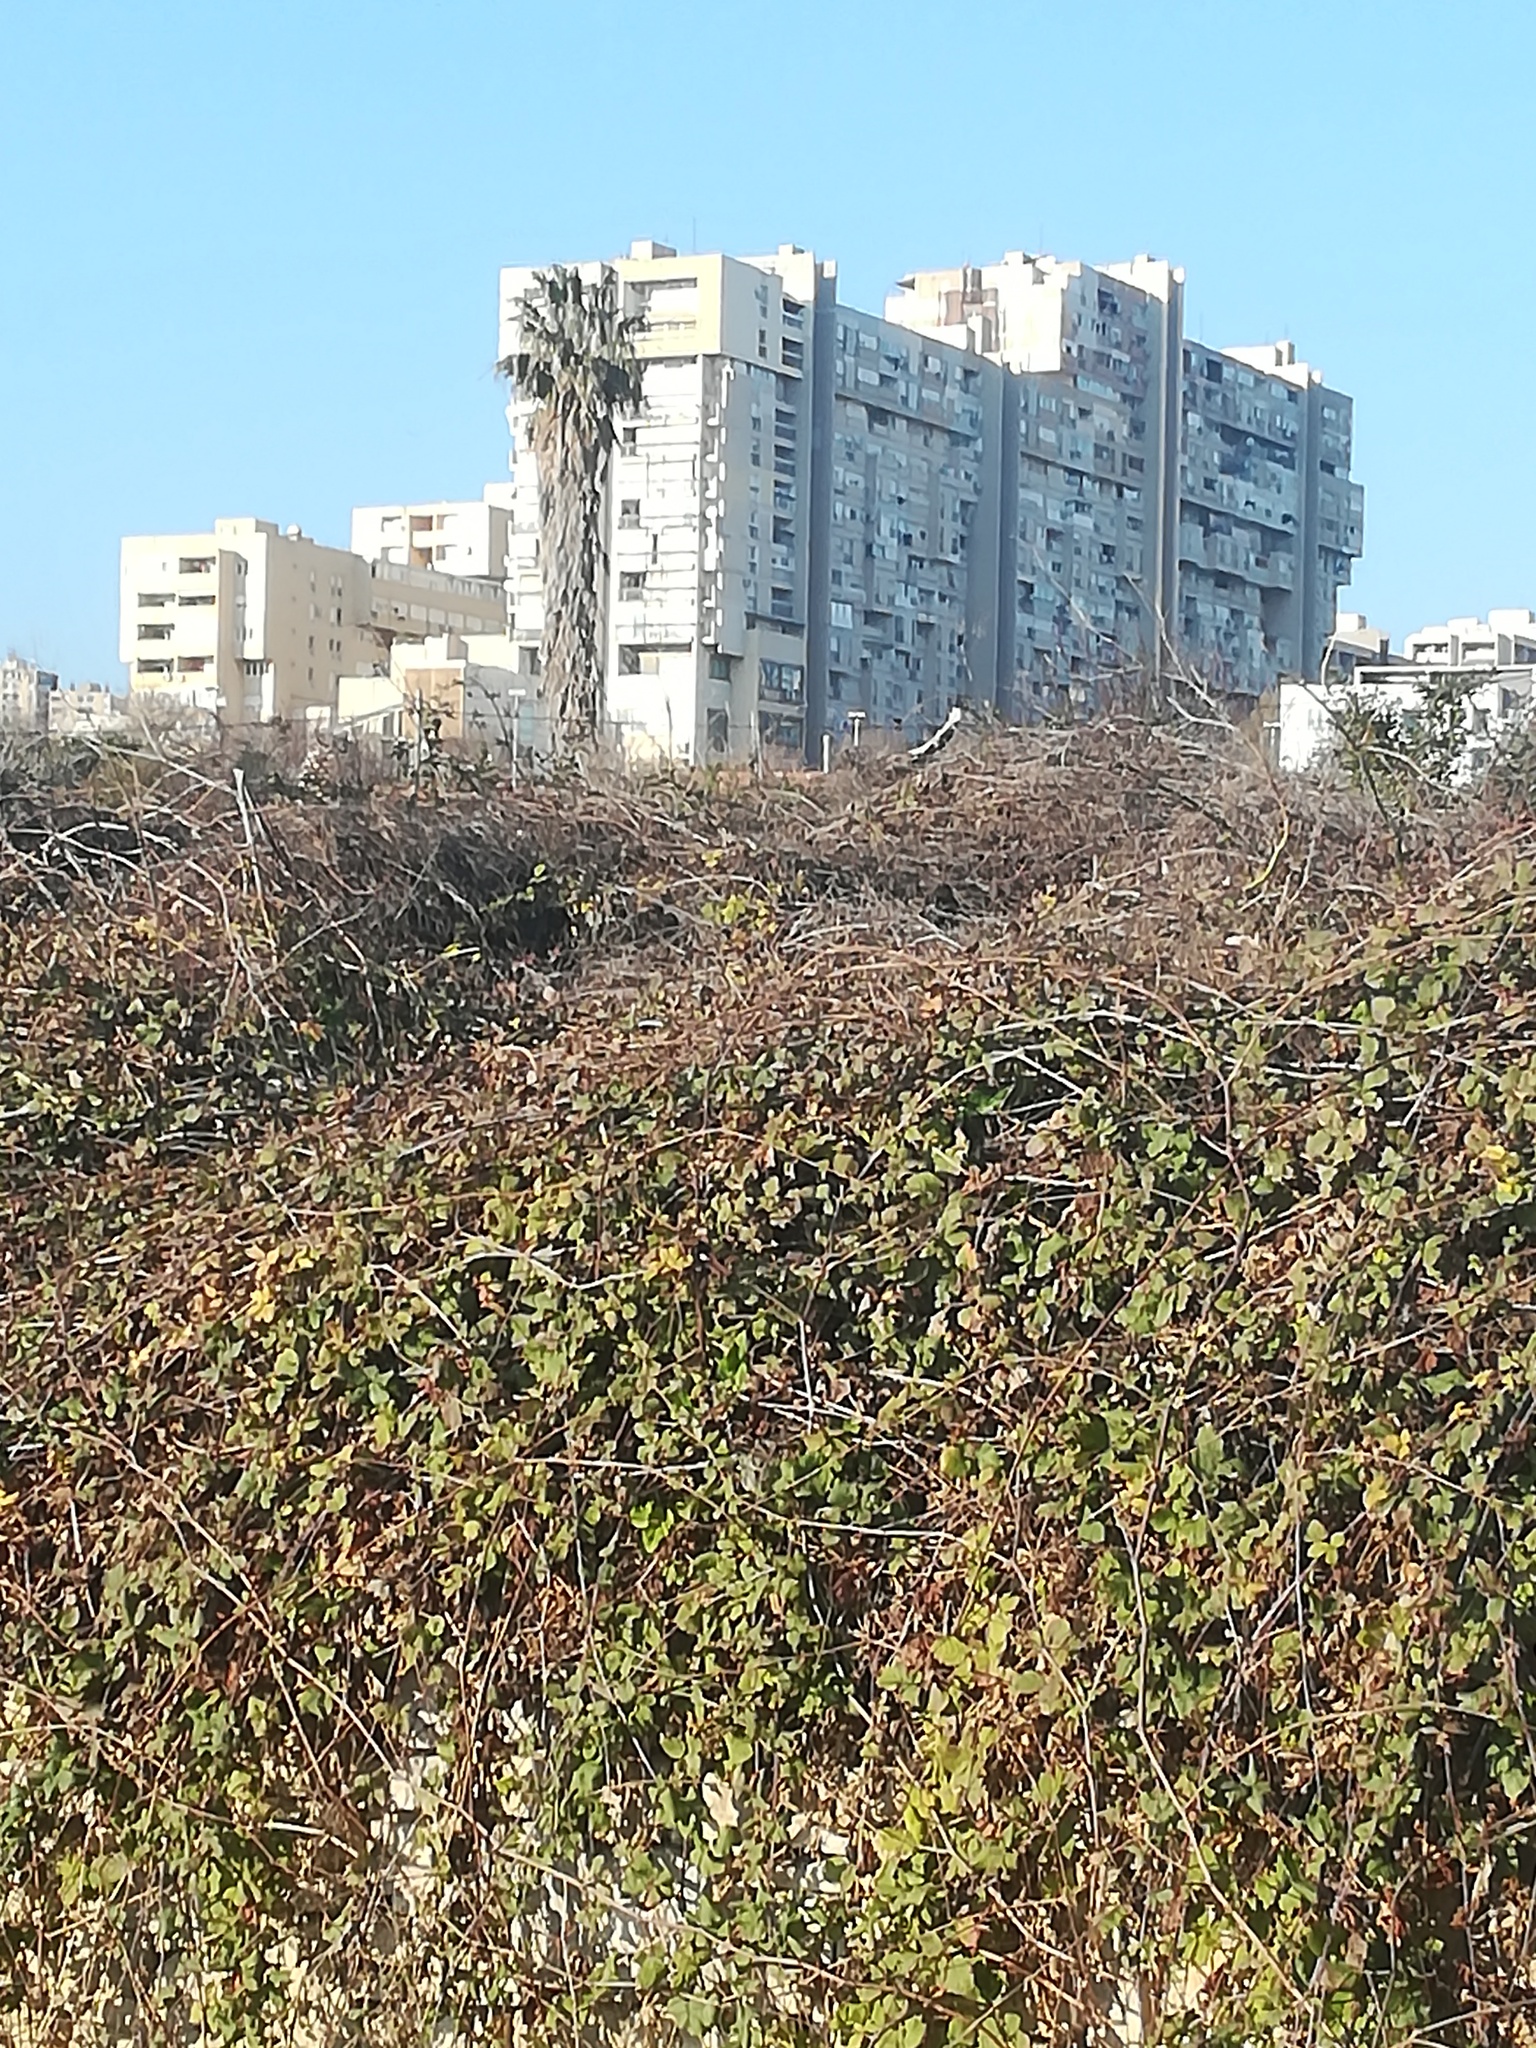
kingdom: Plantae
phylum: Tracheophyta
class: Magnoliopsida
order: Rosales
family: Rosaceae
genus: Rubus
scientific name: Rubus ulmifolius
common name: Elmleaf blackberry
